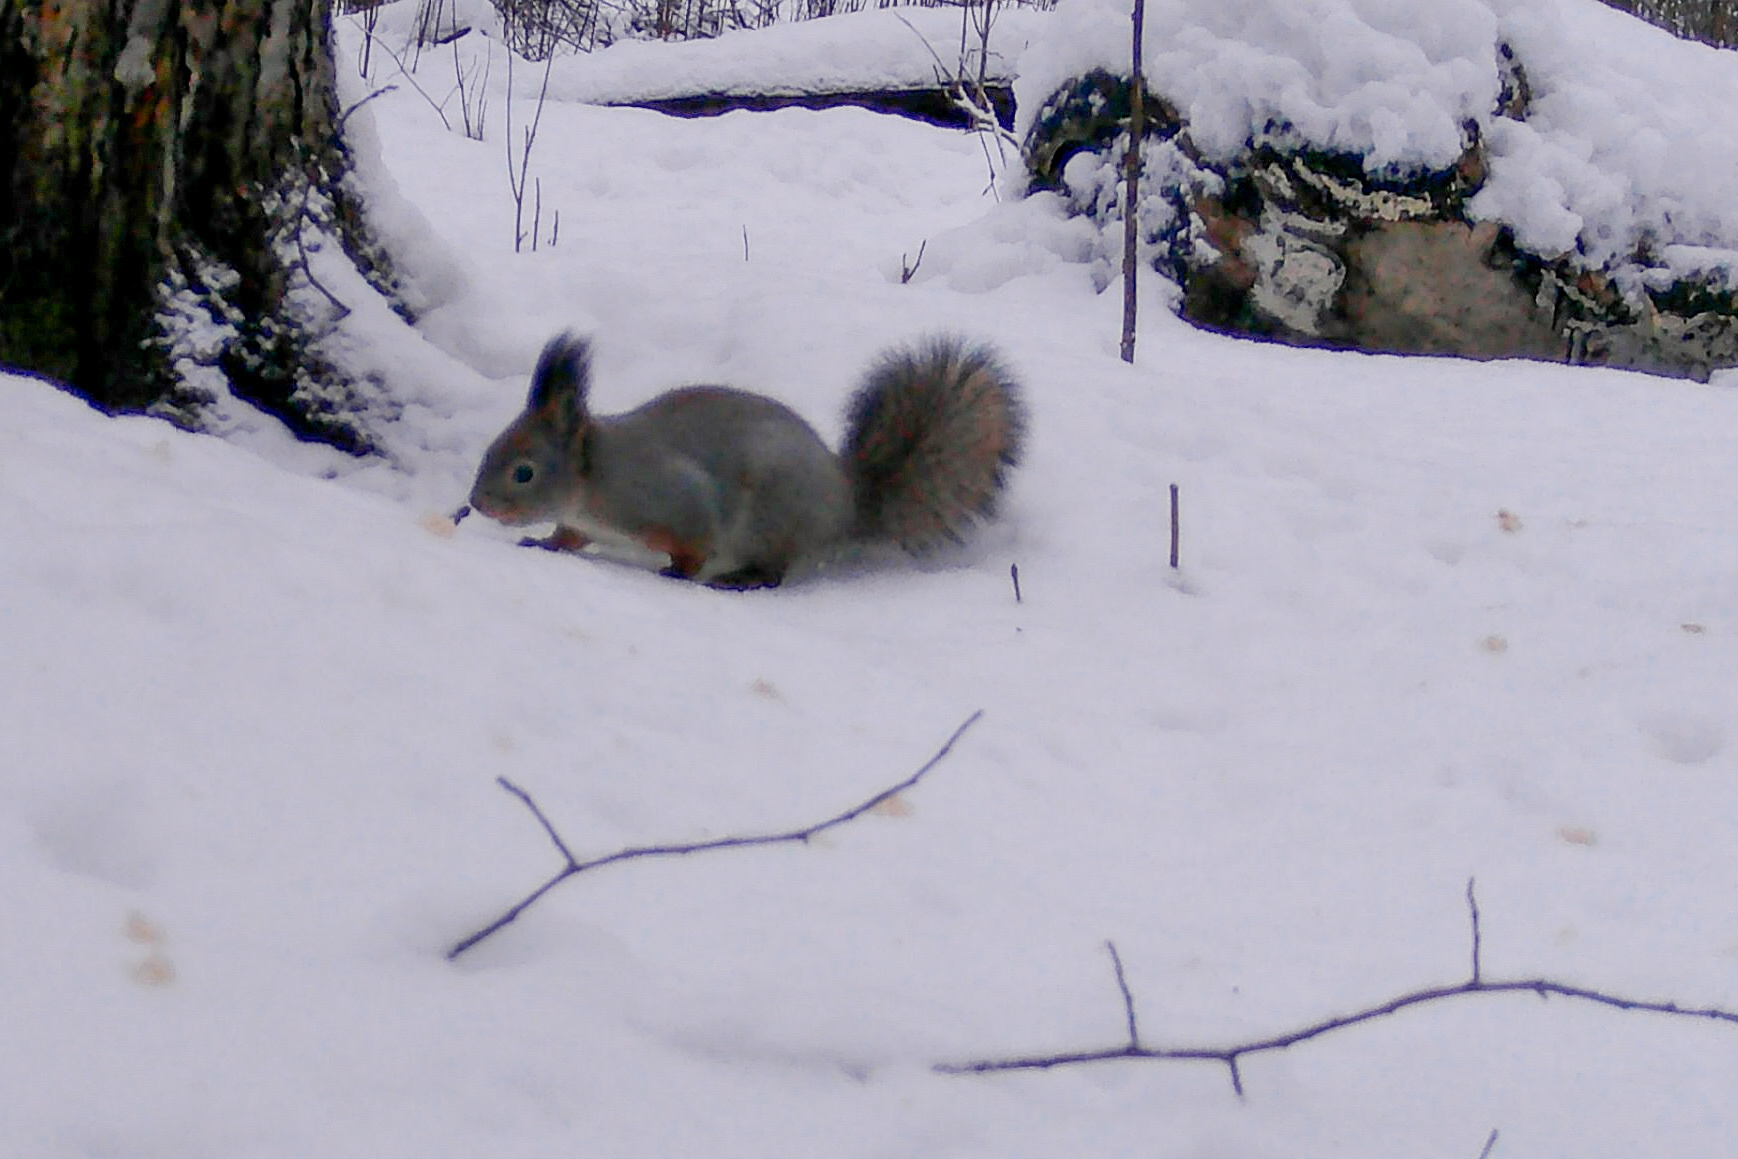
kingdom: Animalia
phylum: Chordata
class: Mammalia
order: Rodentia
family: Sciuridae
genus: Sciurus
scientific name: Sciurus vulgaris
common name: Eurasian red squirrel
